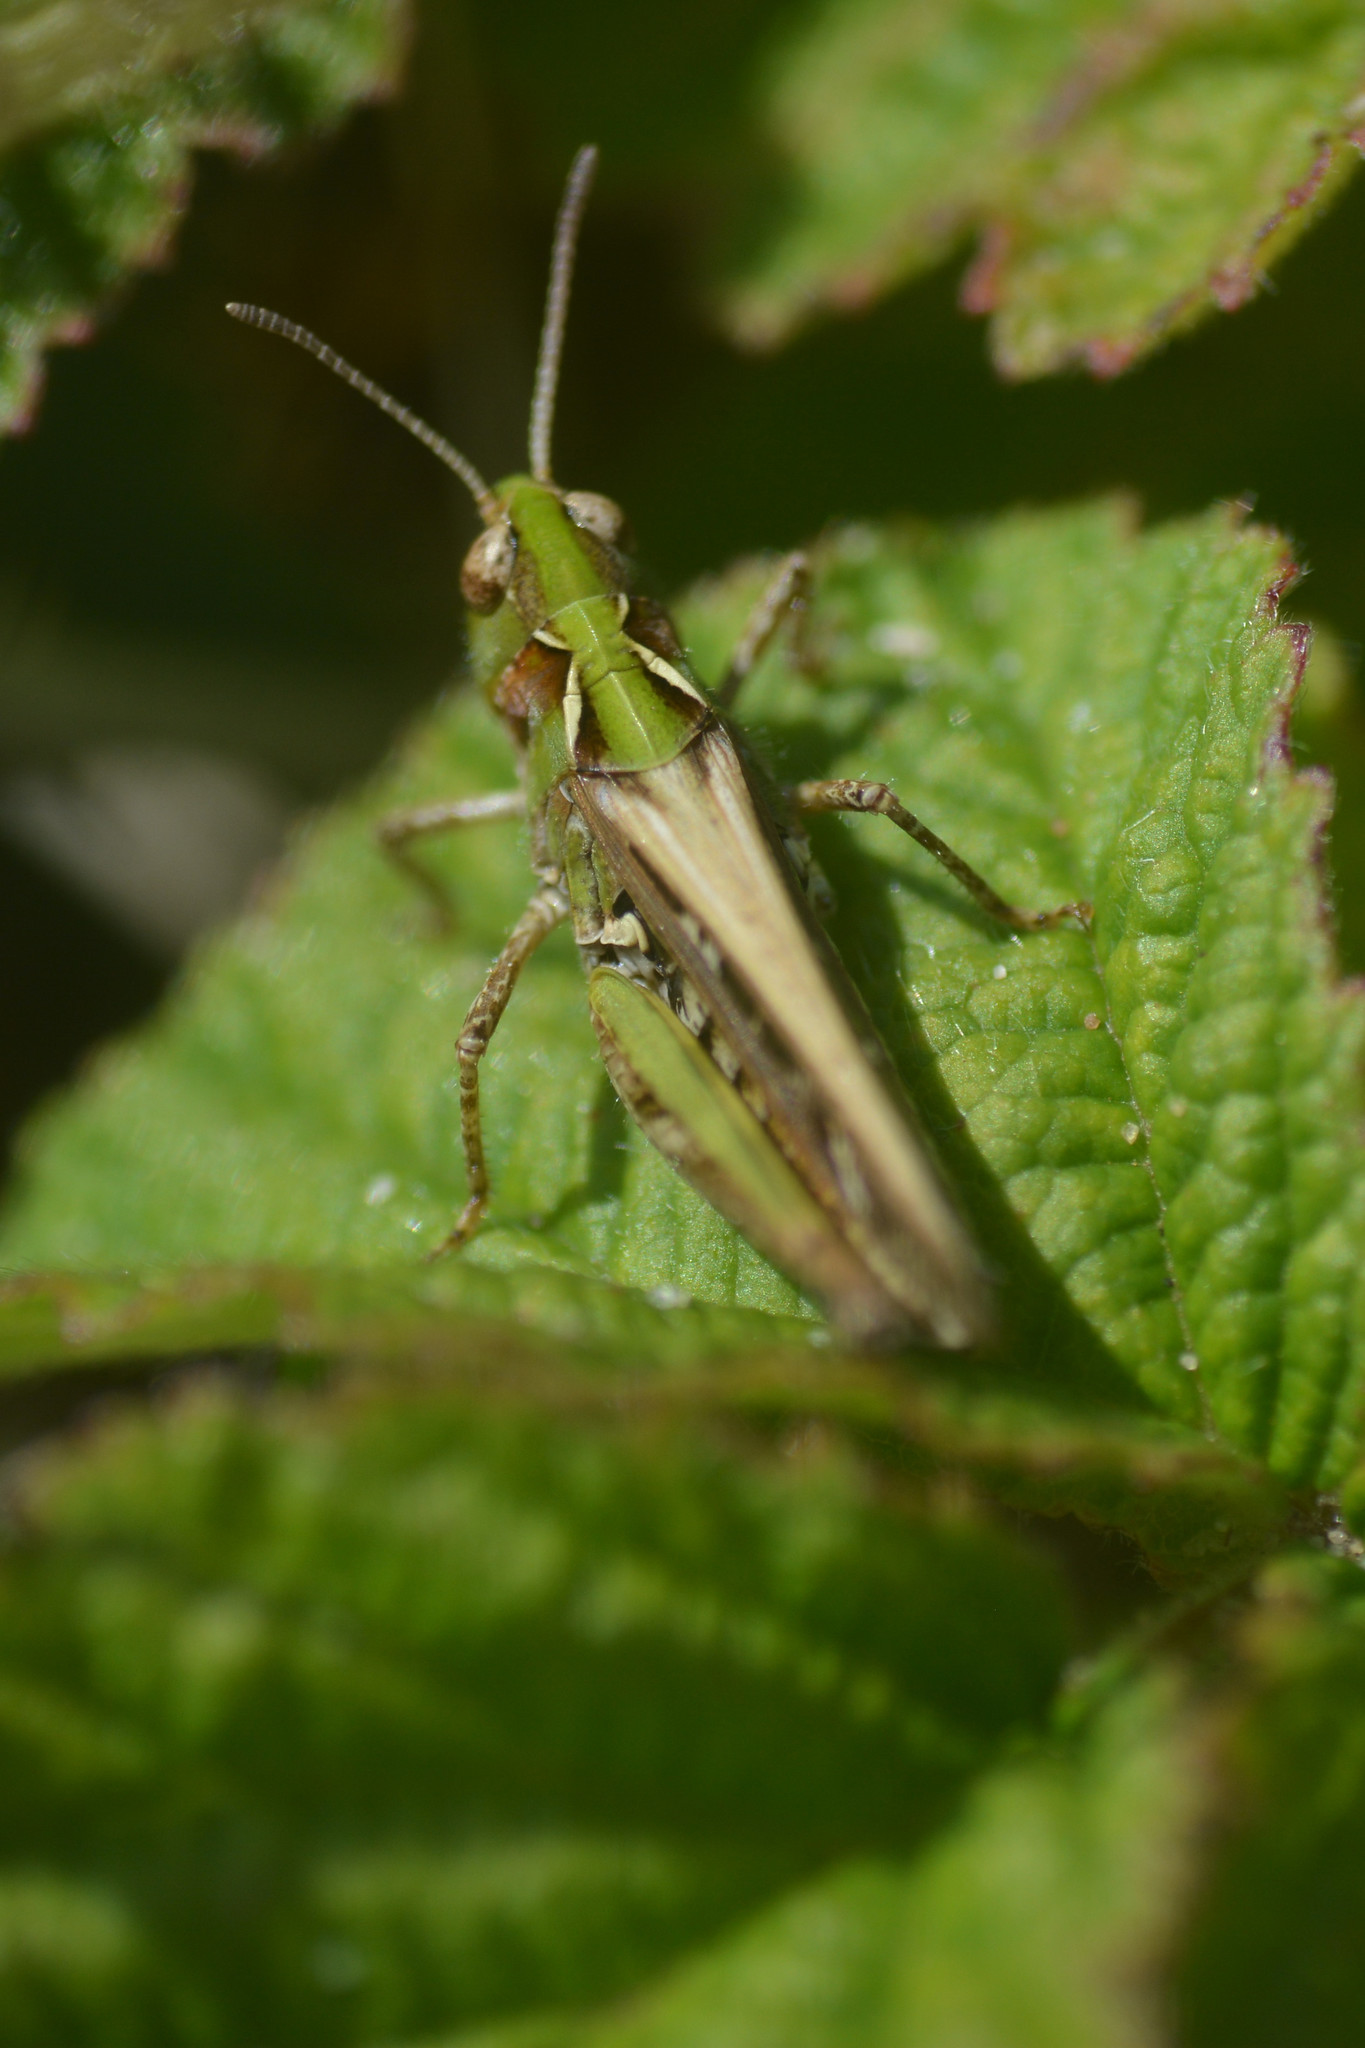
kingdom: Animalia
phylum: Arthropoda
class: Insecta
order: Orthoptera
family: Acrididae
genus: Myrmeleotettix
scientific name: Myrmeleotettix maculatus
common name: Mottled grasshopper
